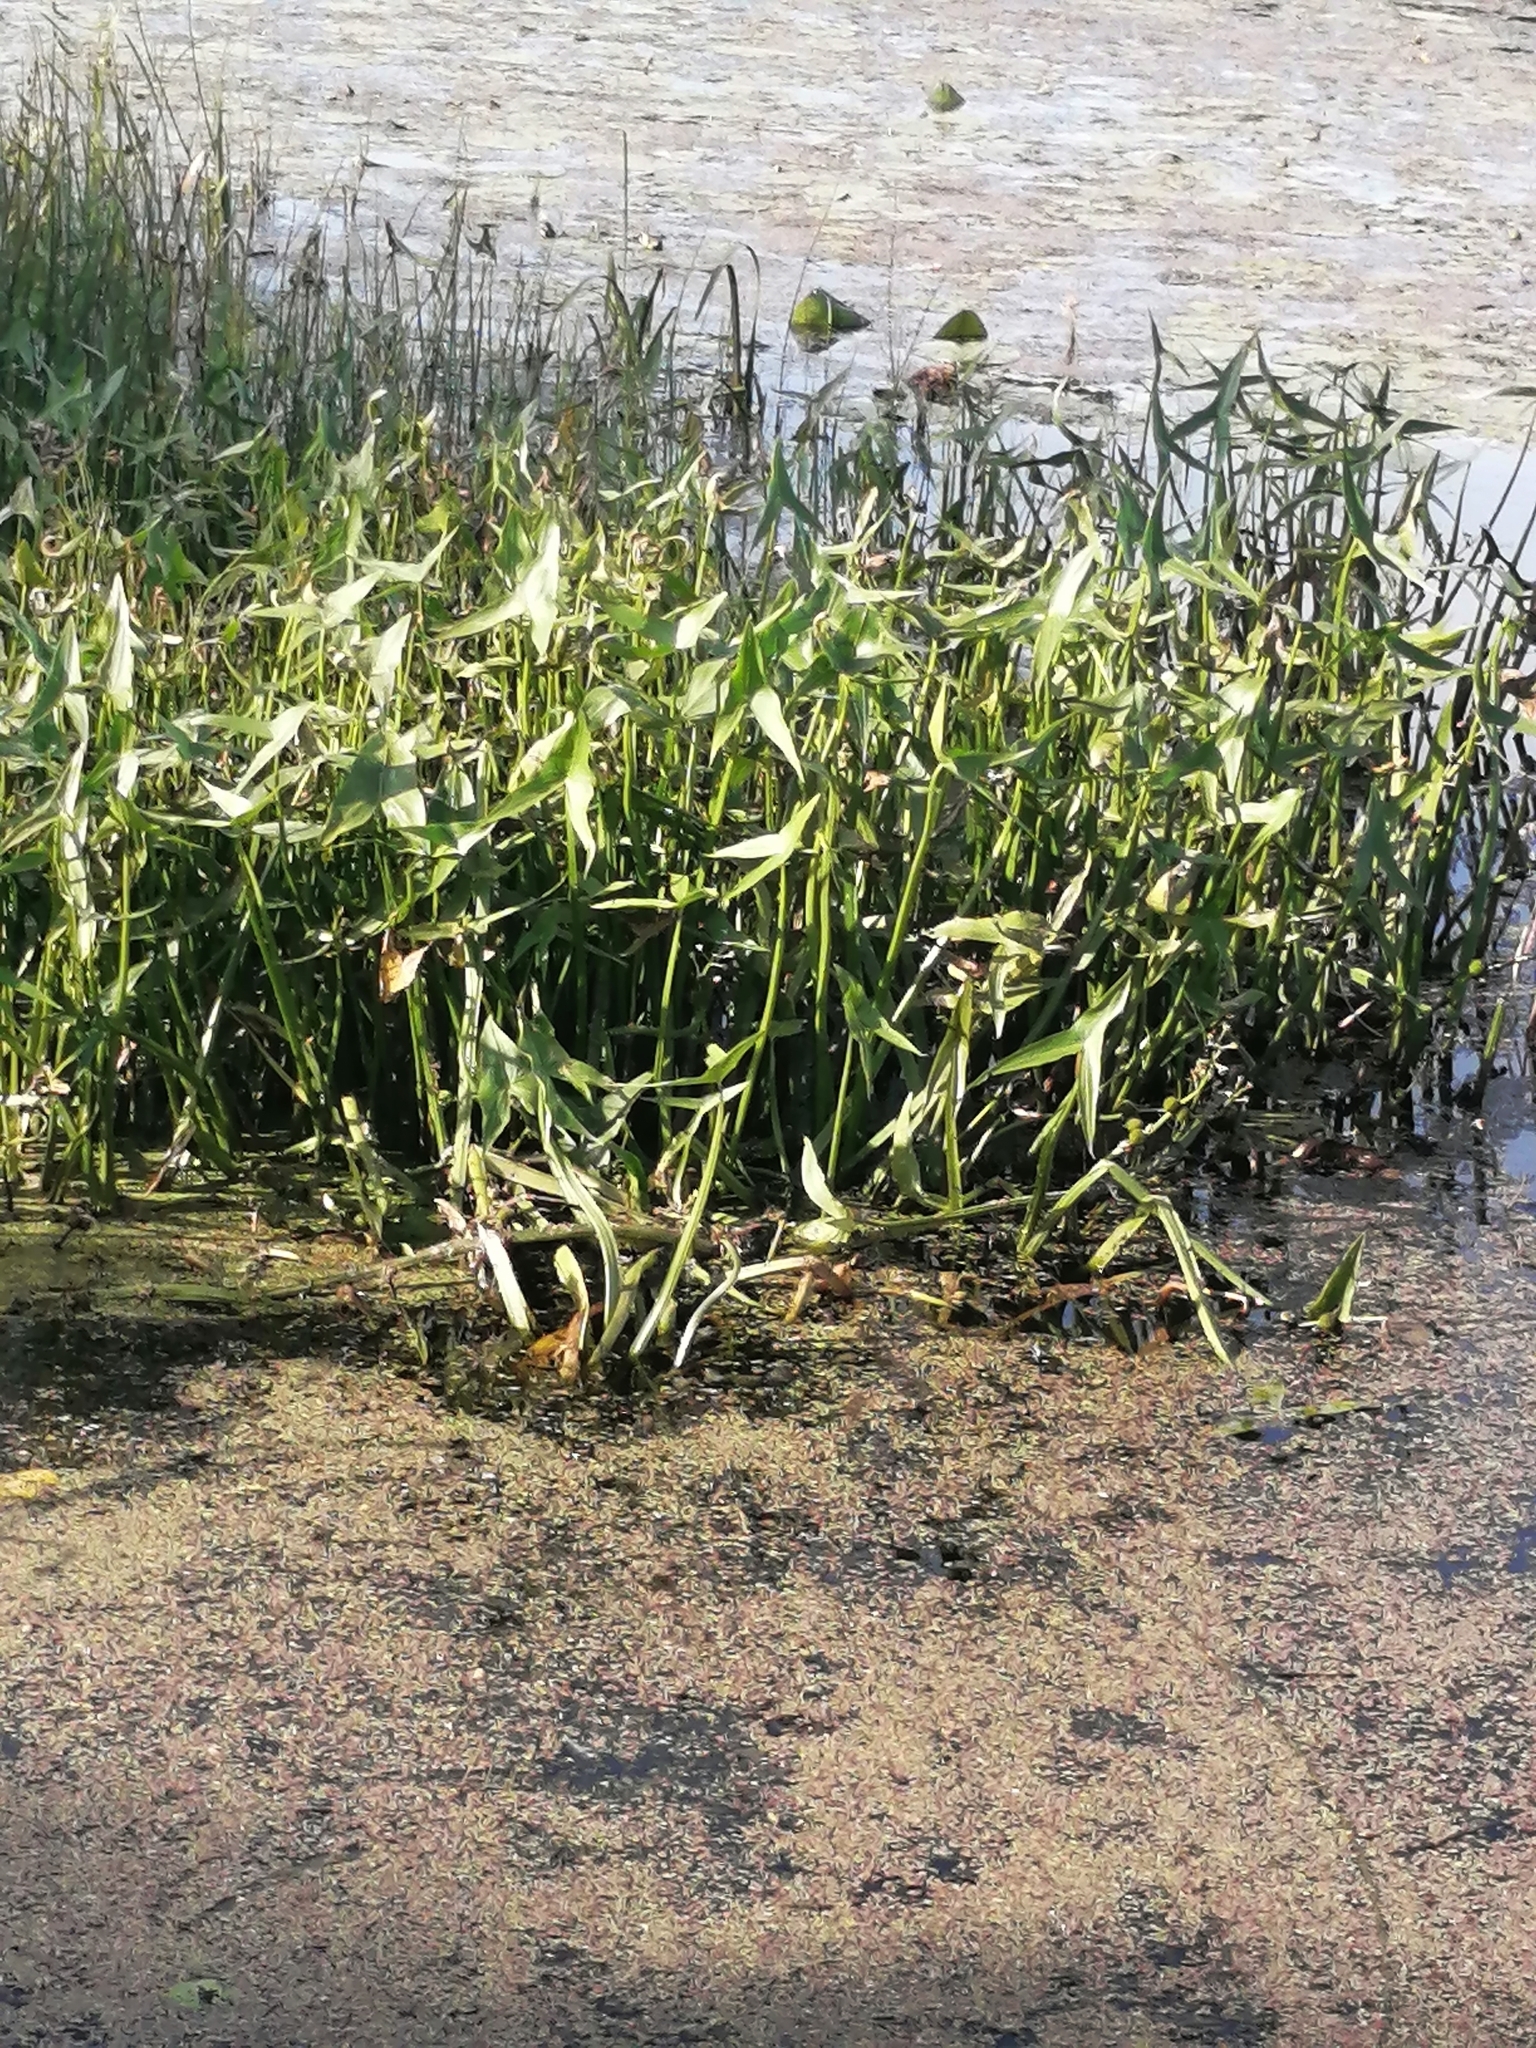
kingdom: Plantae
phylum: Tracheophyta
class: Liliopsida
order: Alismatales
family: Alismataceae
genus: Sagittaria
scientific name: Sagittaria sagittifolia
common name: Arrowhead
